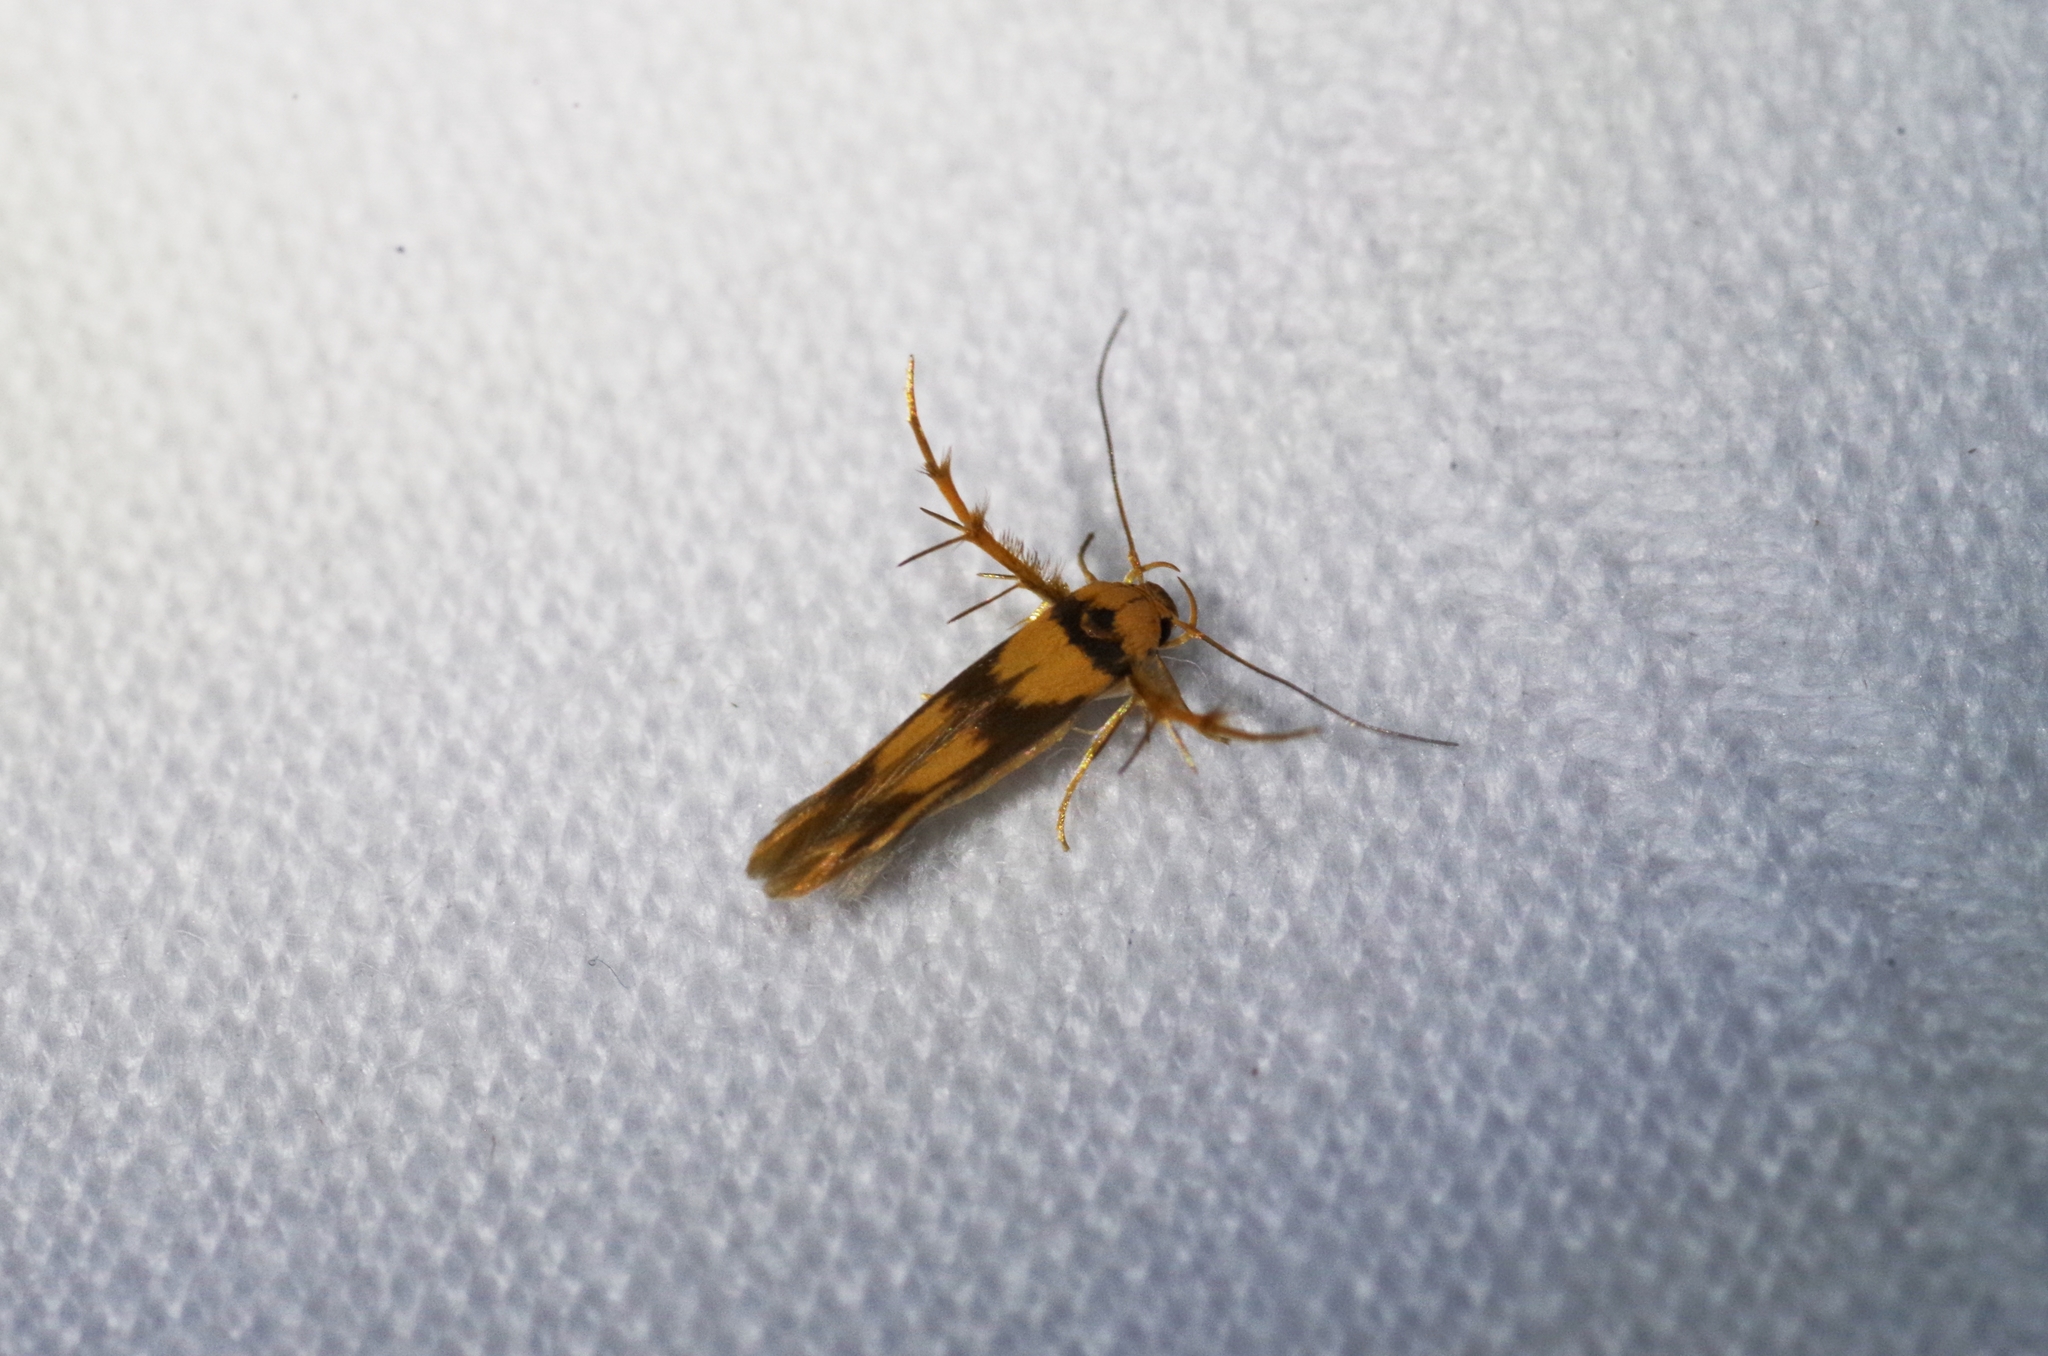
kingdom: Animalia
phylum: Arthropoda
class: Insecta
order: Lepidoptera
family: Stathmopodidae
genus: Stathmopoda
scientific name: Stathmopoda aprica
